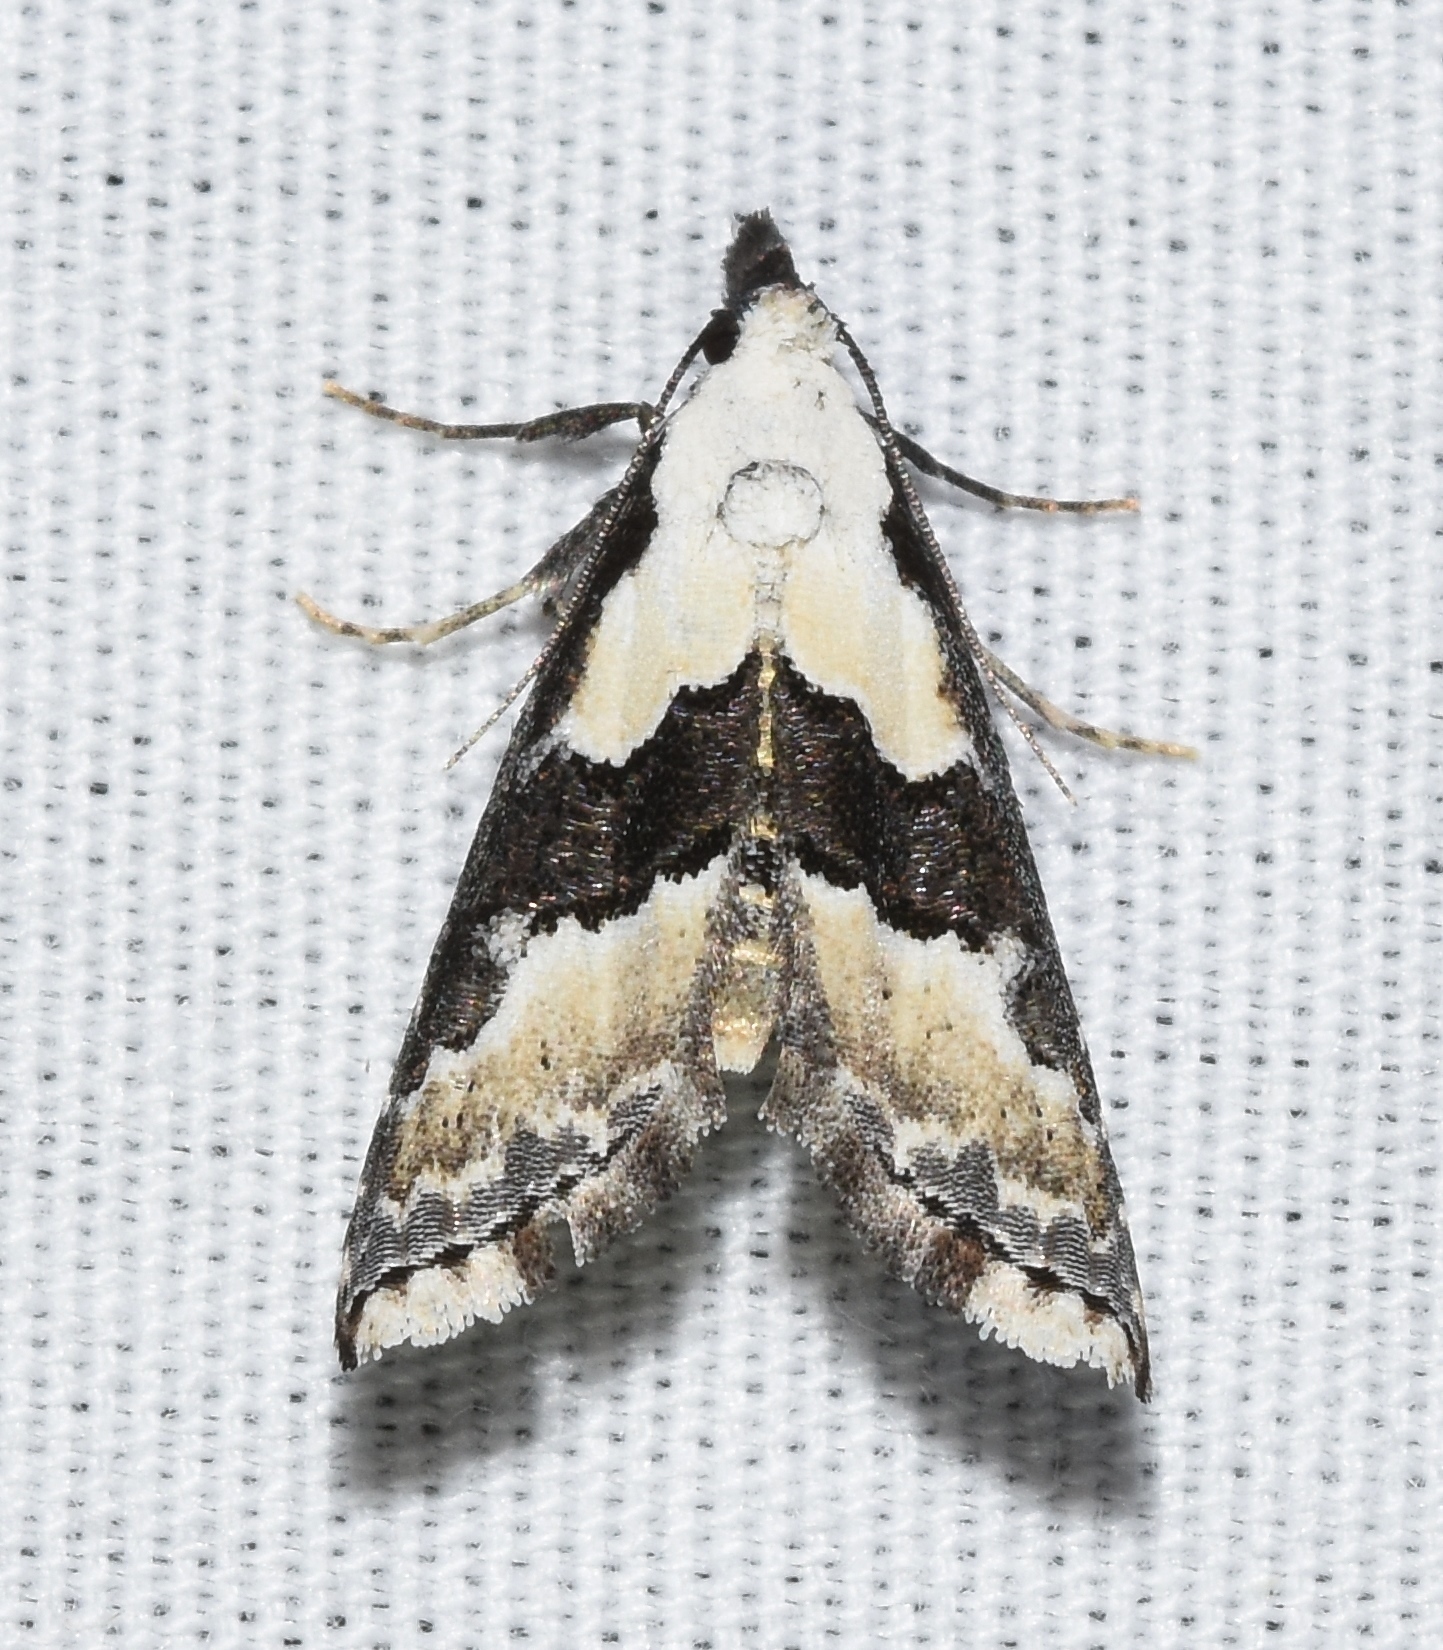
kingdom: Animalia
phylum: Arthropoda
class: Insecta
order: Lepidoptera
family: Noctuidae
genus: Nigetia
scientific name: Nigetia formosalis
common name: Thin-winged owlet
